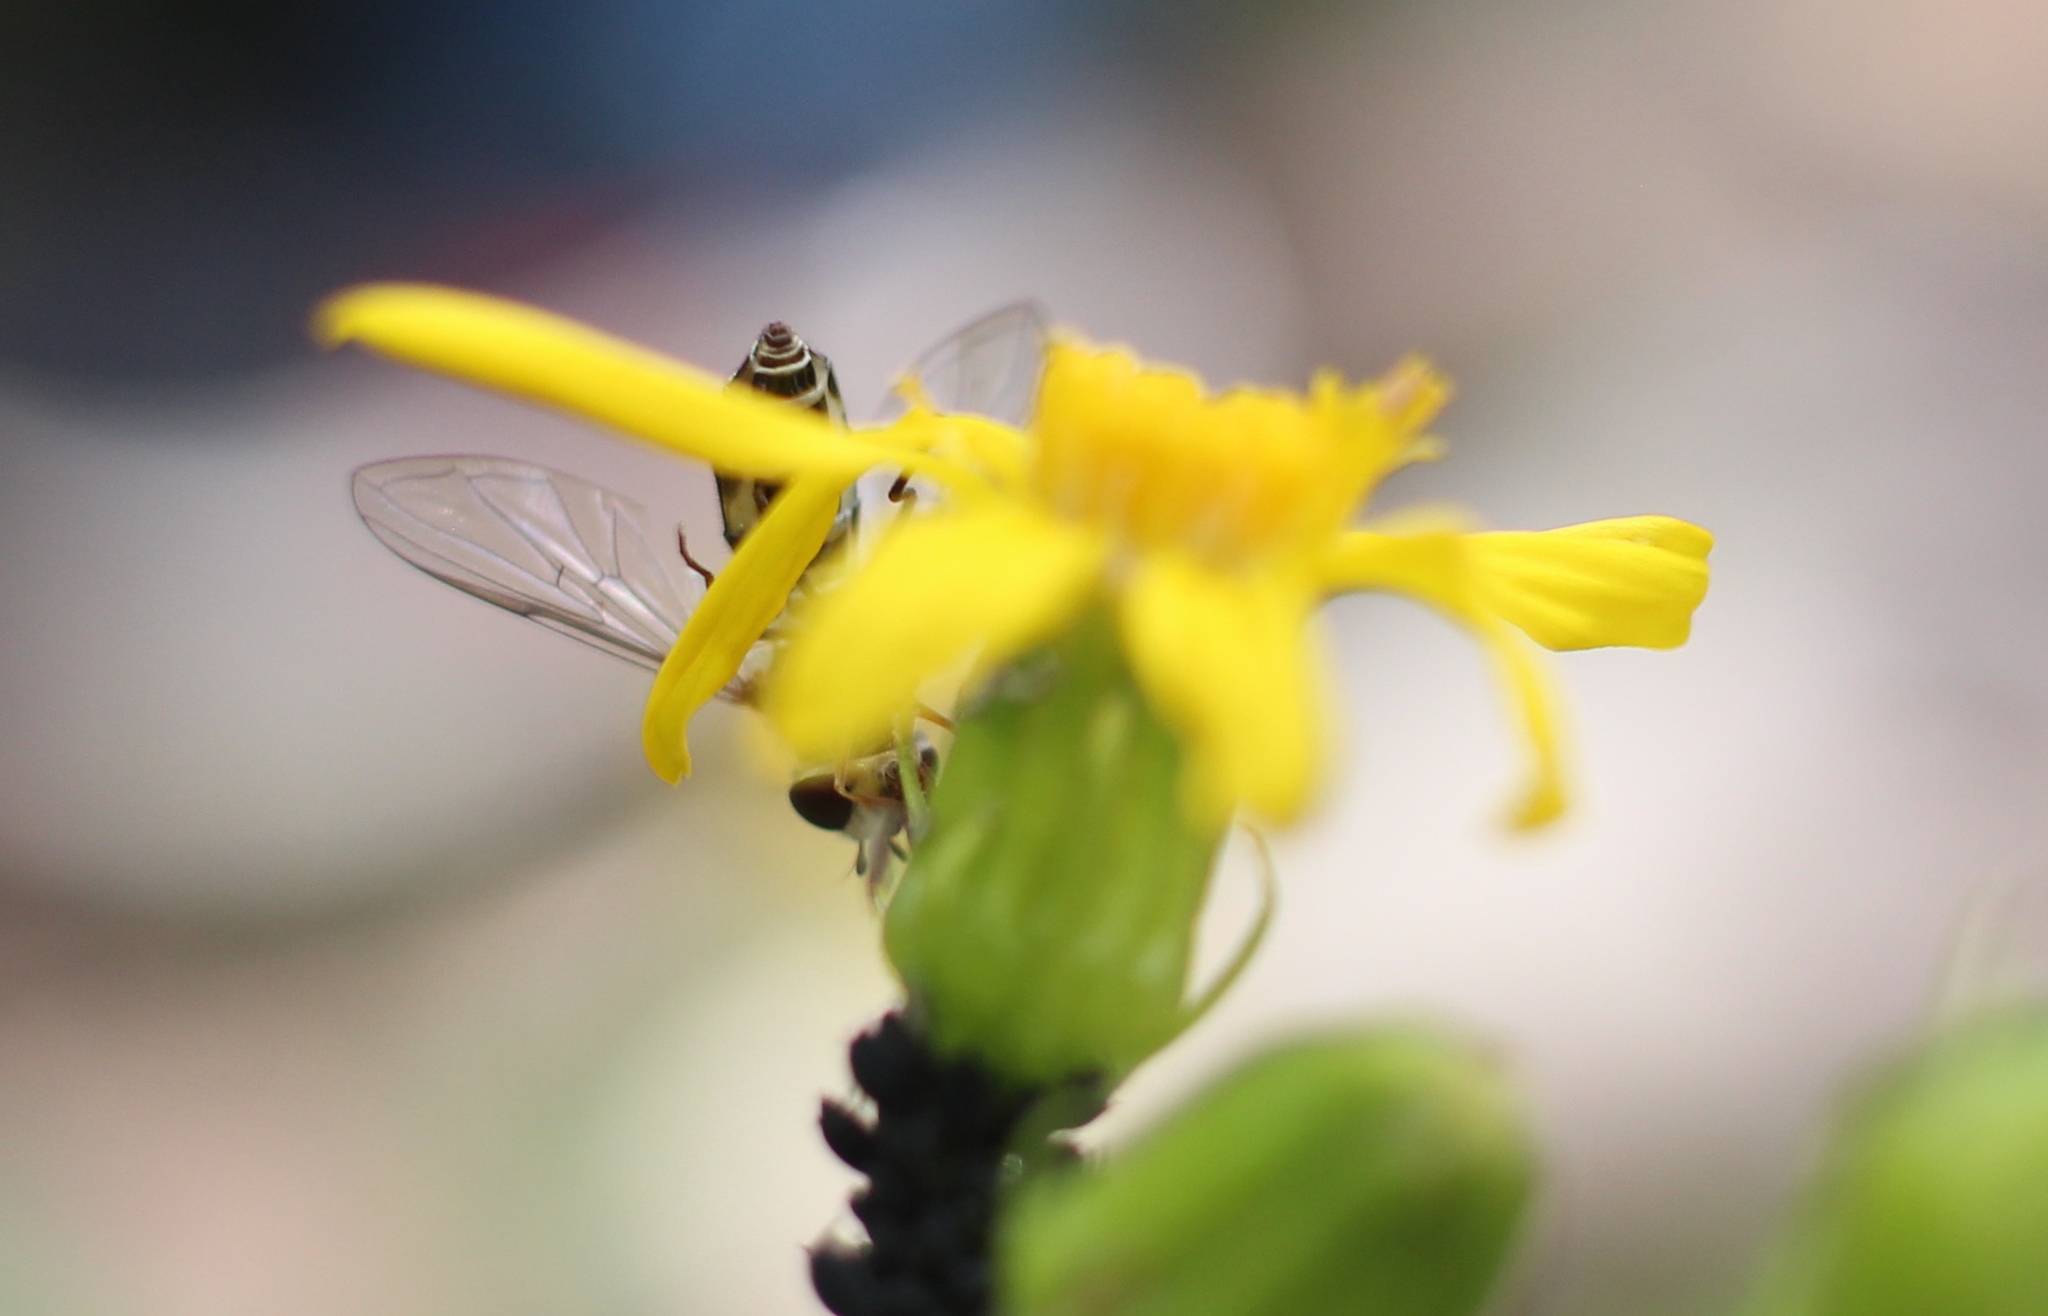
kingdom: Animalia
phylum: Arthropoda
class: Insecta
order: Diptera
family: Syrphidae
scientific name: Syrphidae
